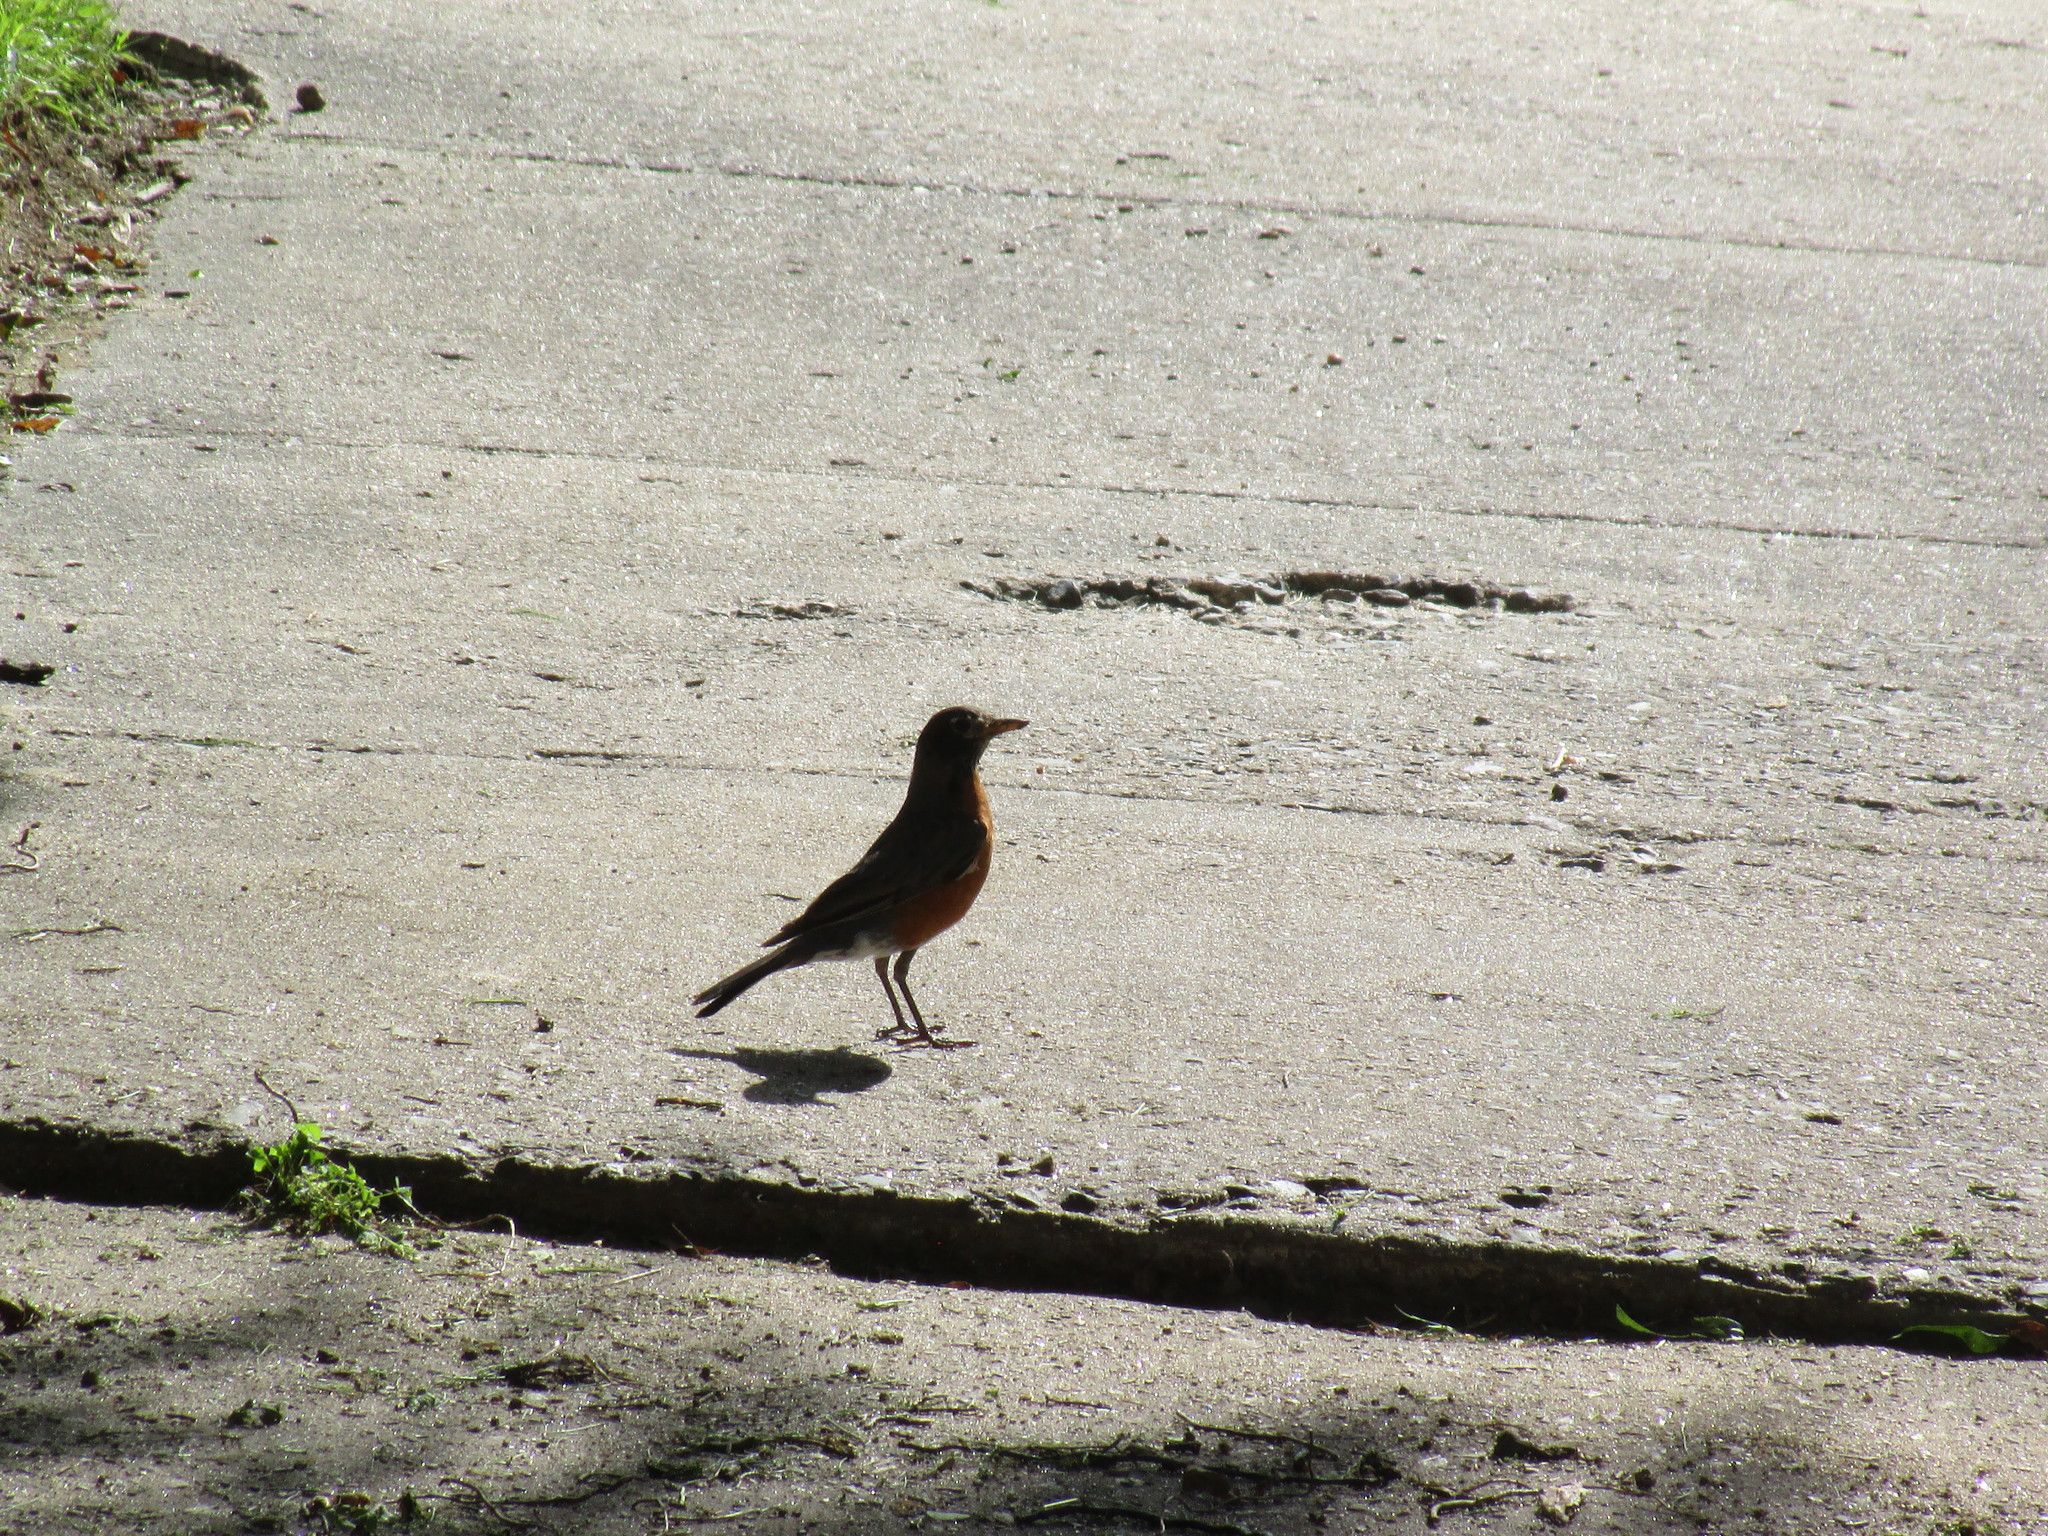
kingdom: Animalia
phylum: Chordata
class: Aves
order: Passeriformes
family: Turdidae
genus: Turdus
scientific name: Turdus migratorius
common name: American robin
